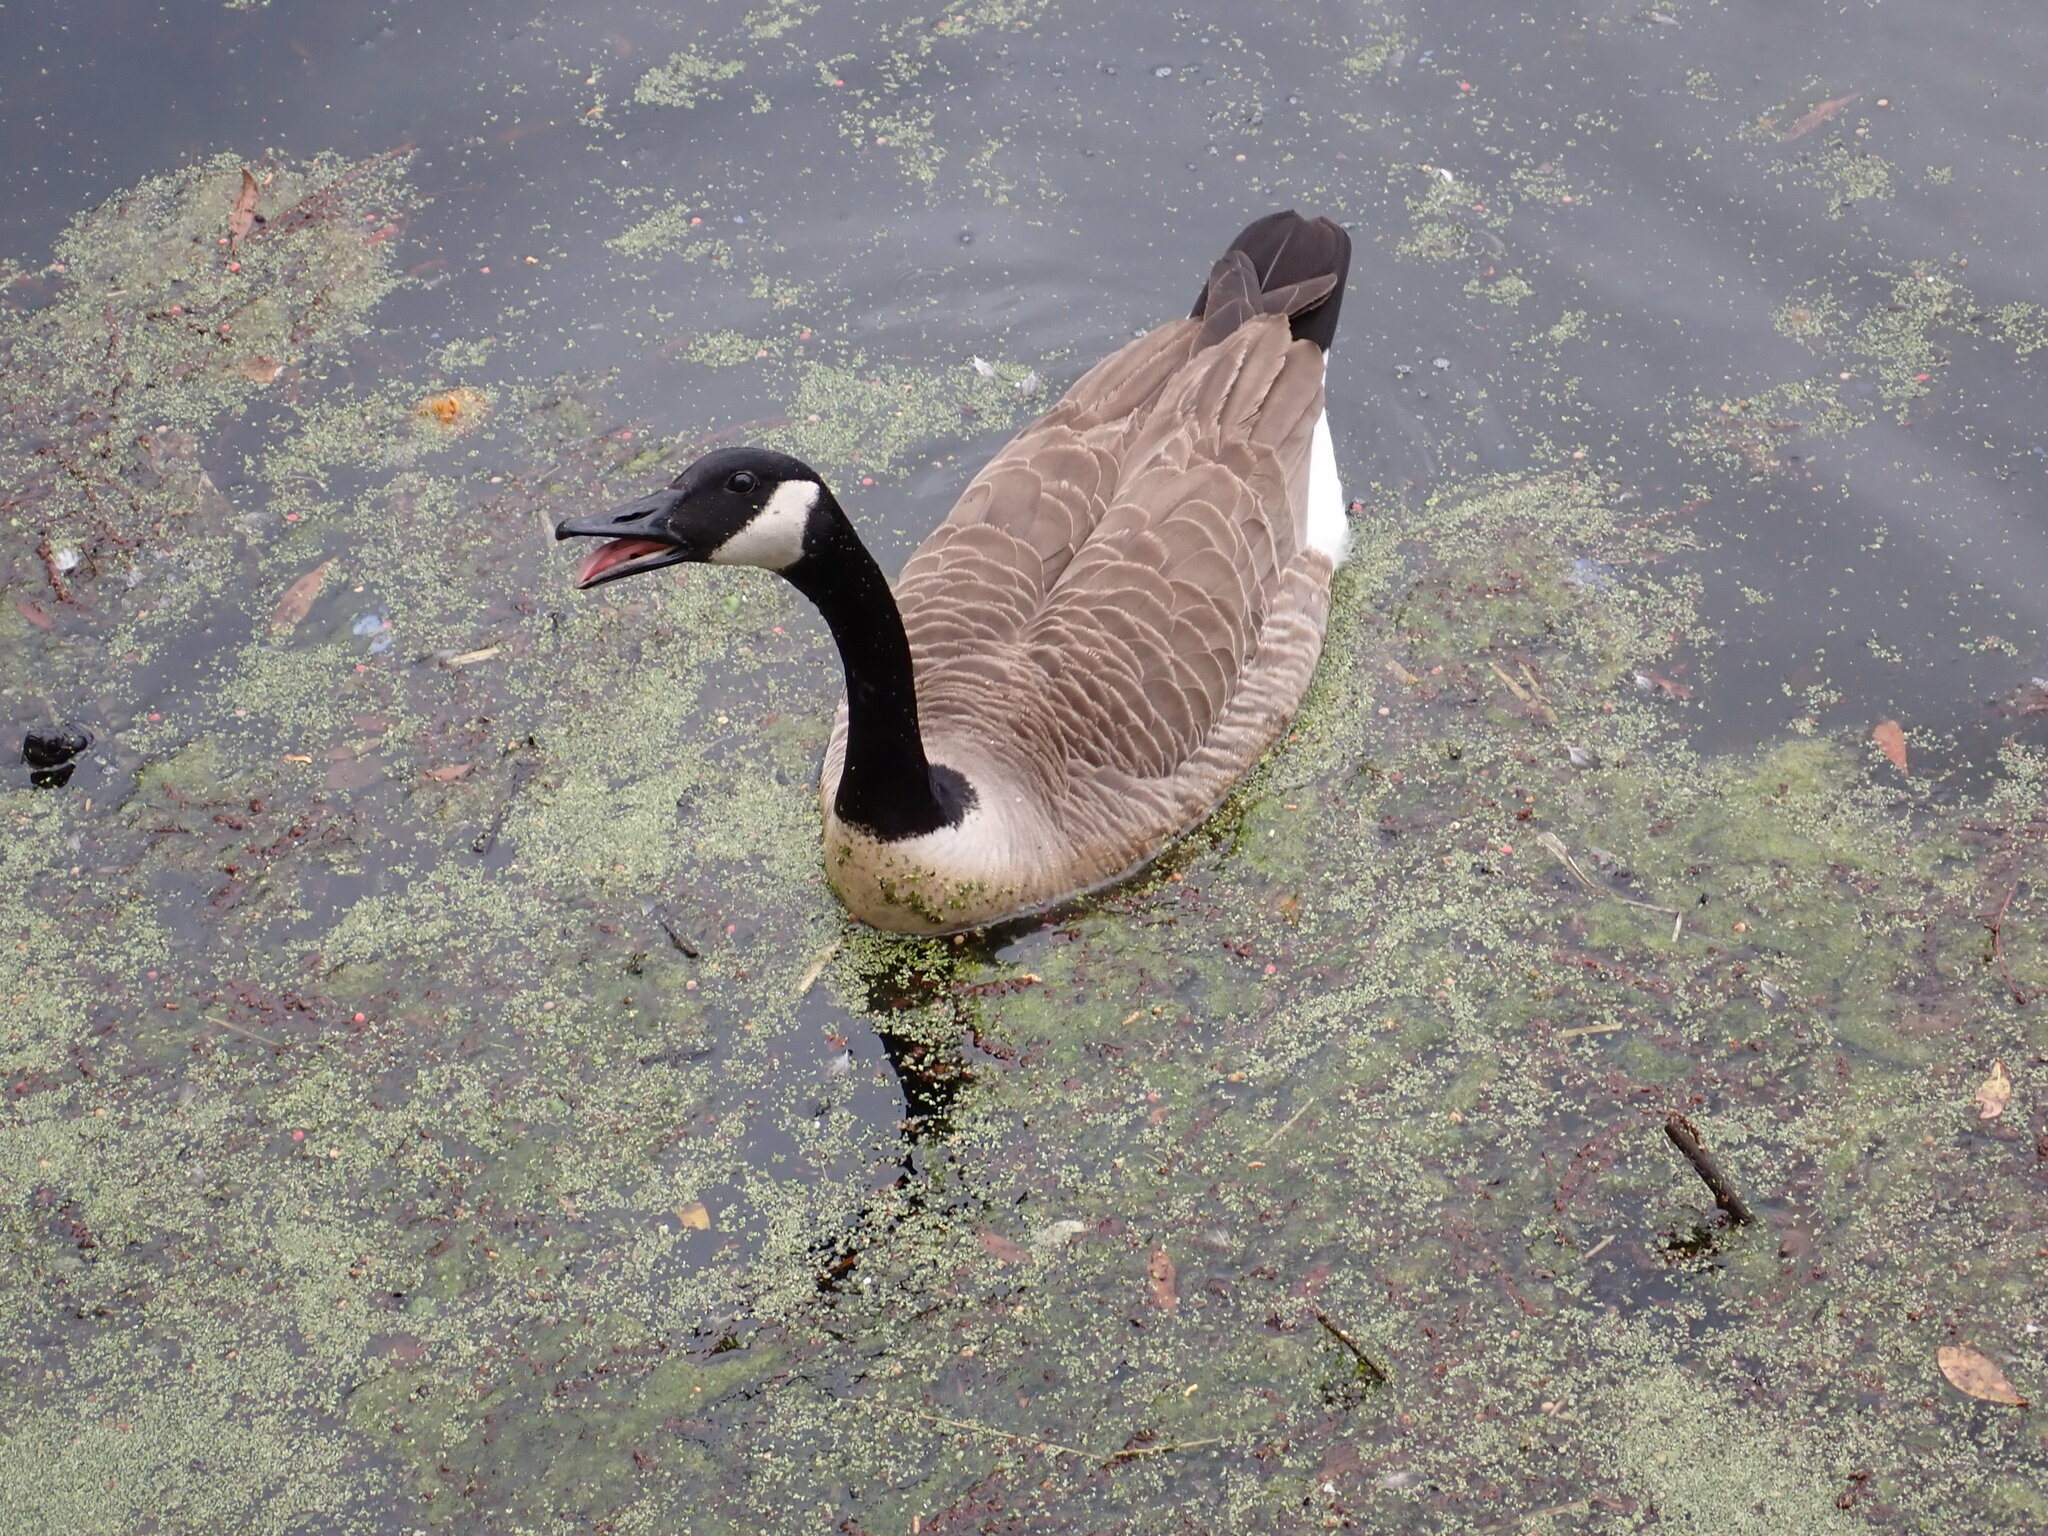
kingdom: Animalia
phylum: Chordata
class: Aves
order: Anseriformes
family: Anatidae
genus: Branta
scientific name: Branta canadensis
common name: Canada goose
